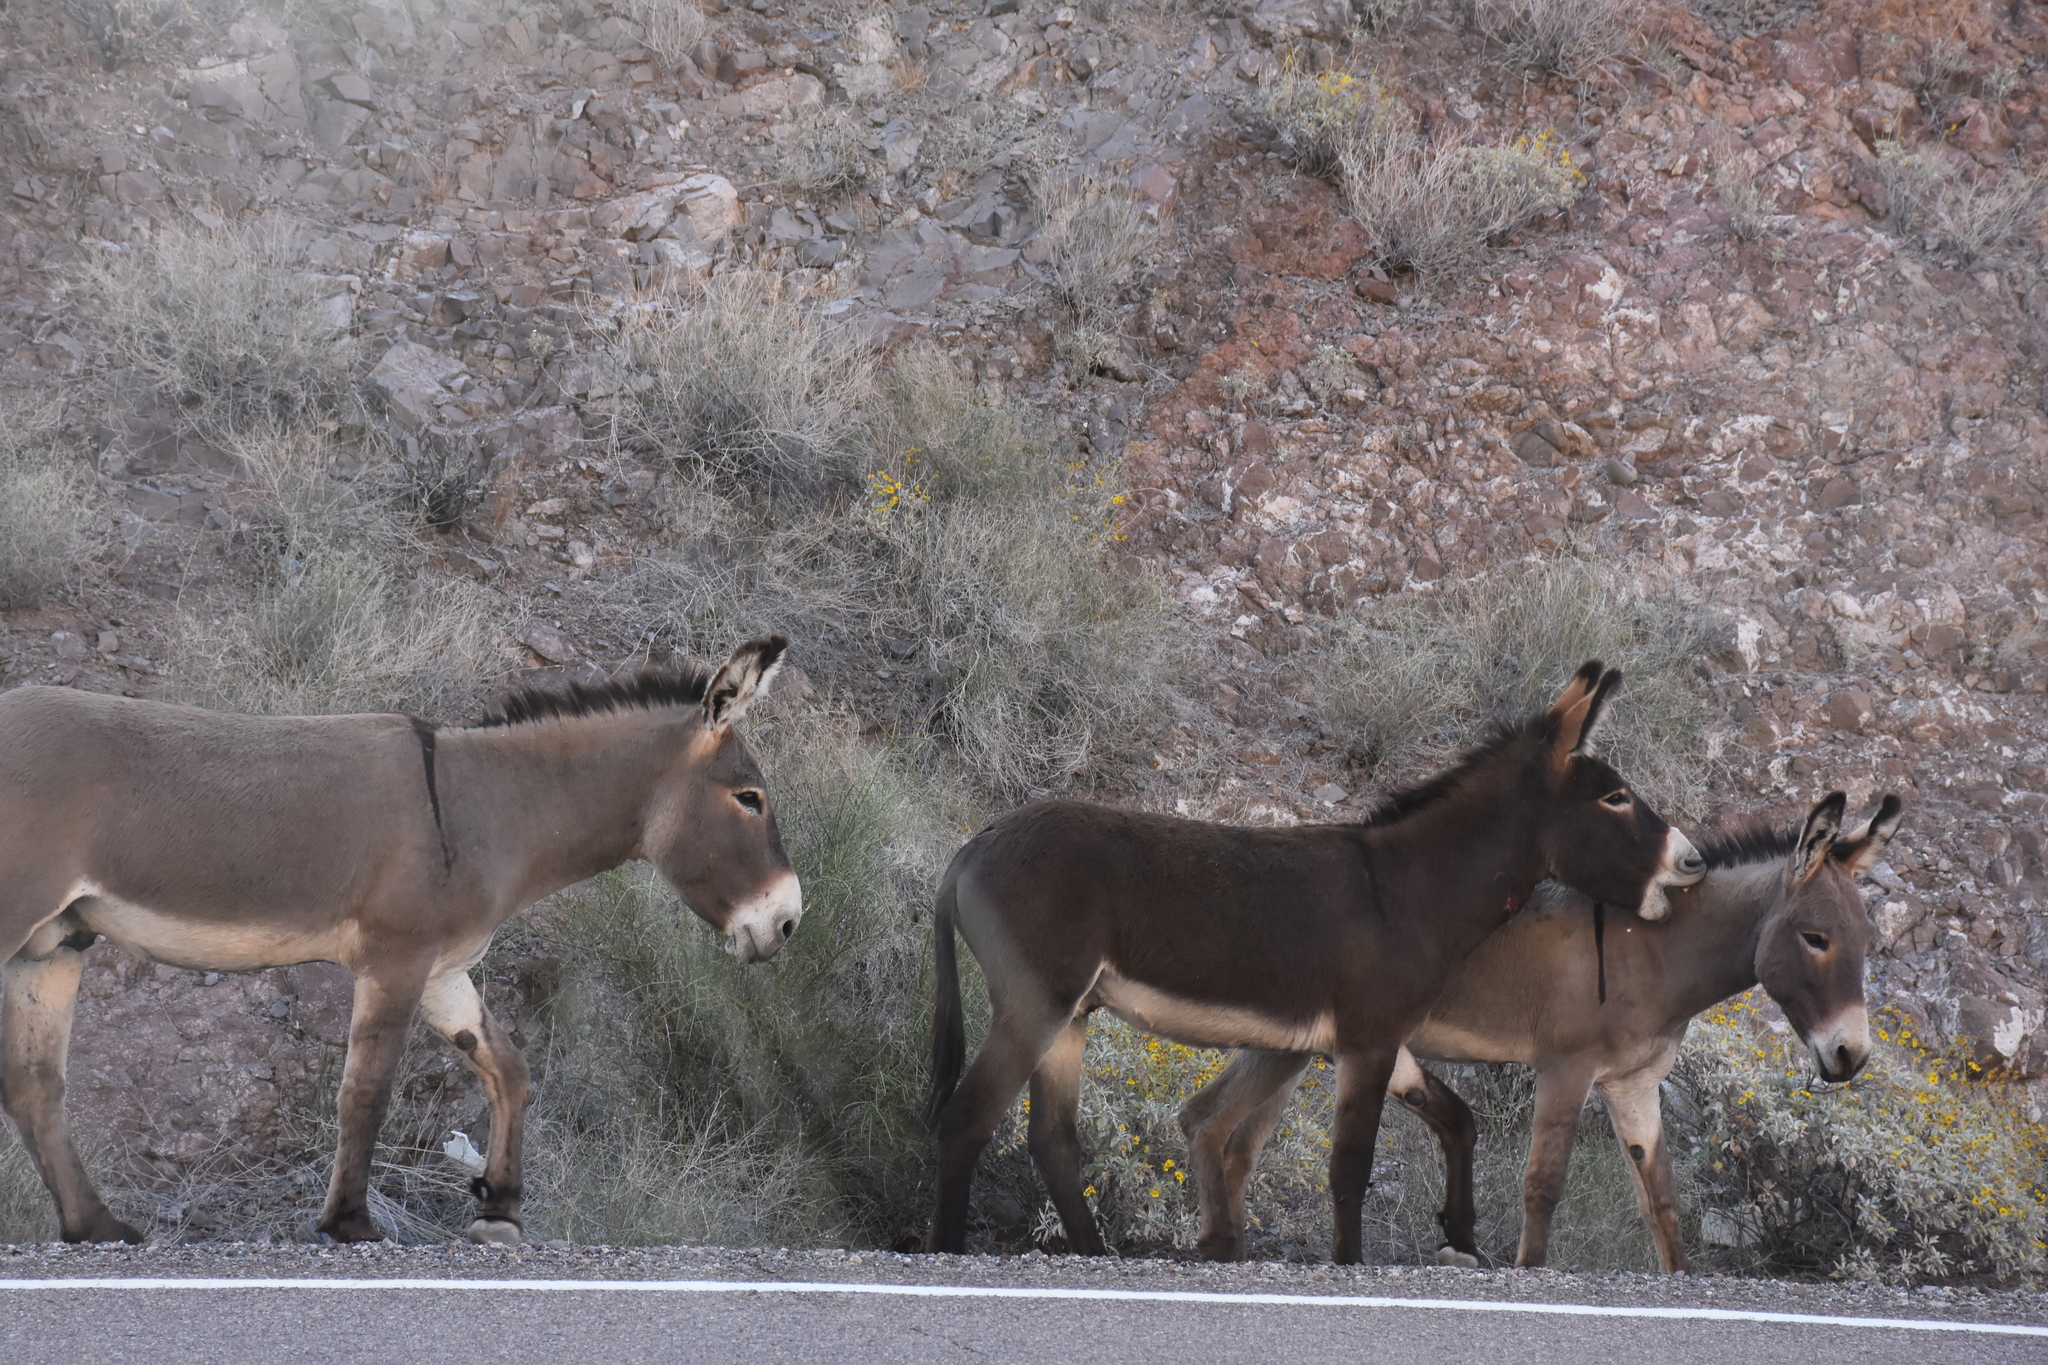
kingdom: Animalia
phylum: Chordata
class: Mammalia
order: Perissodactyla
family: Equidae
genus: Equus
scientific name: Equus asinus
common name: Ass
